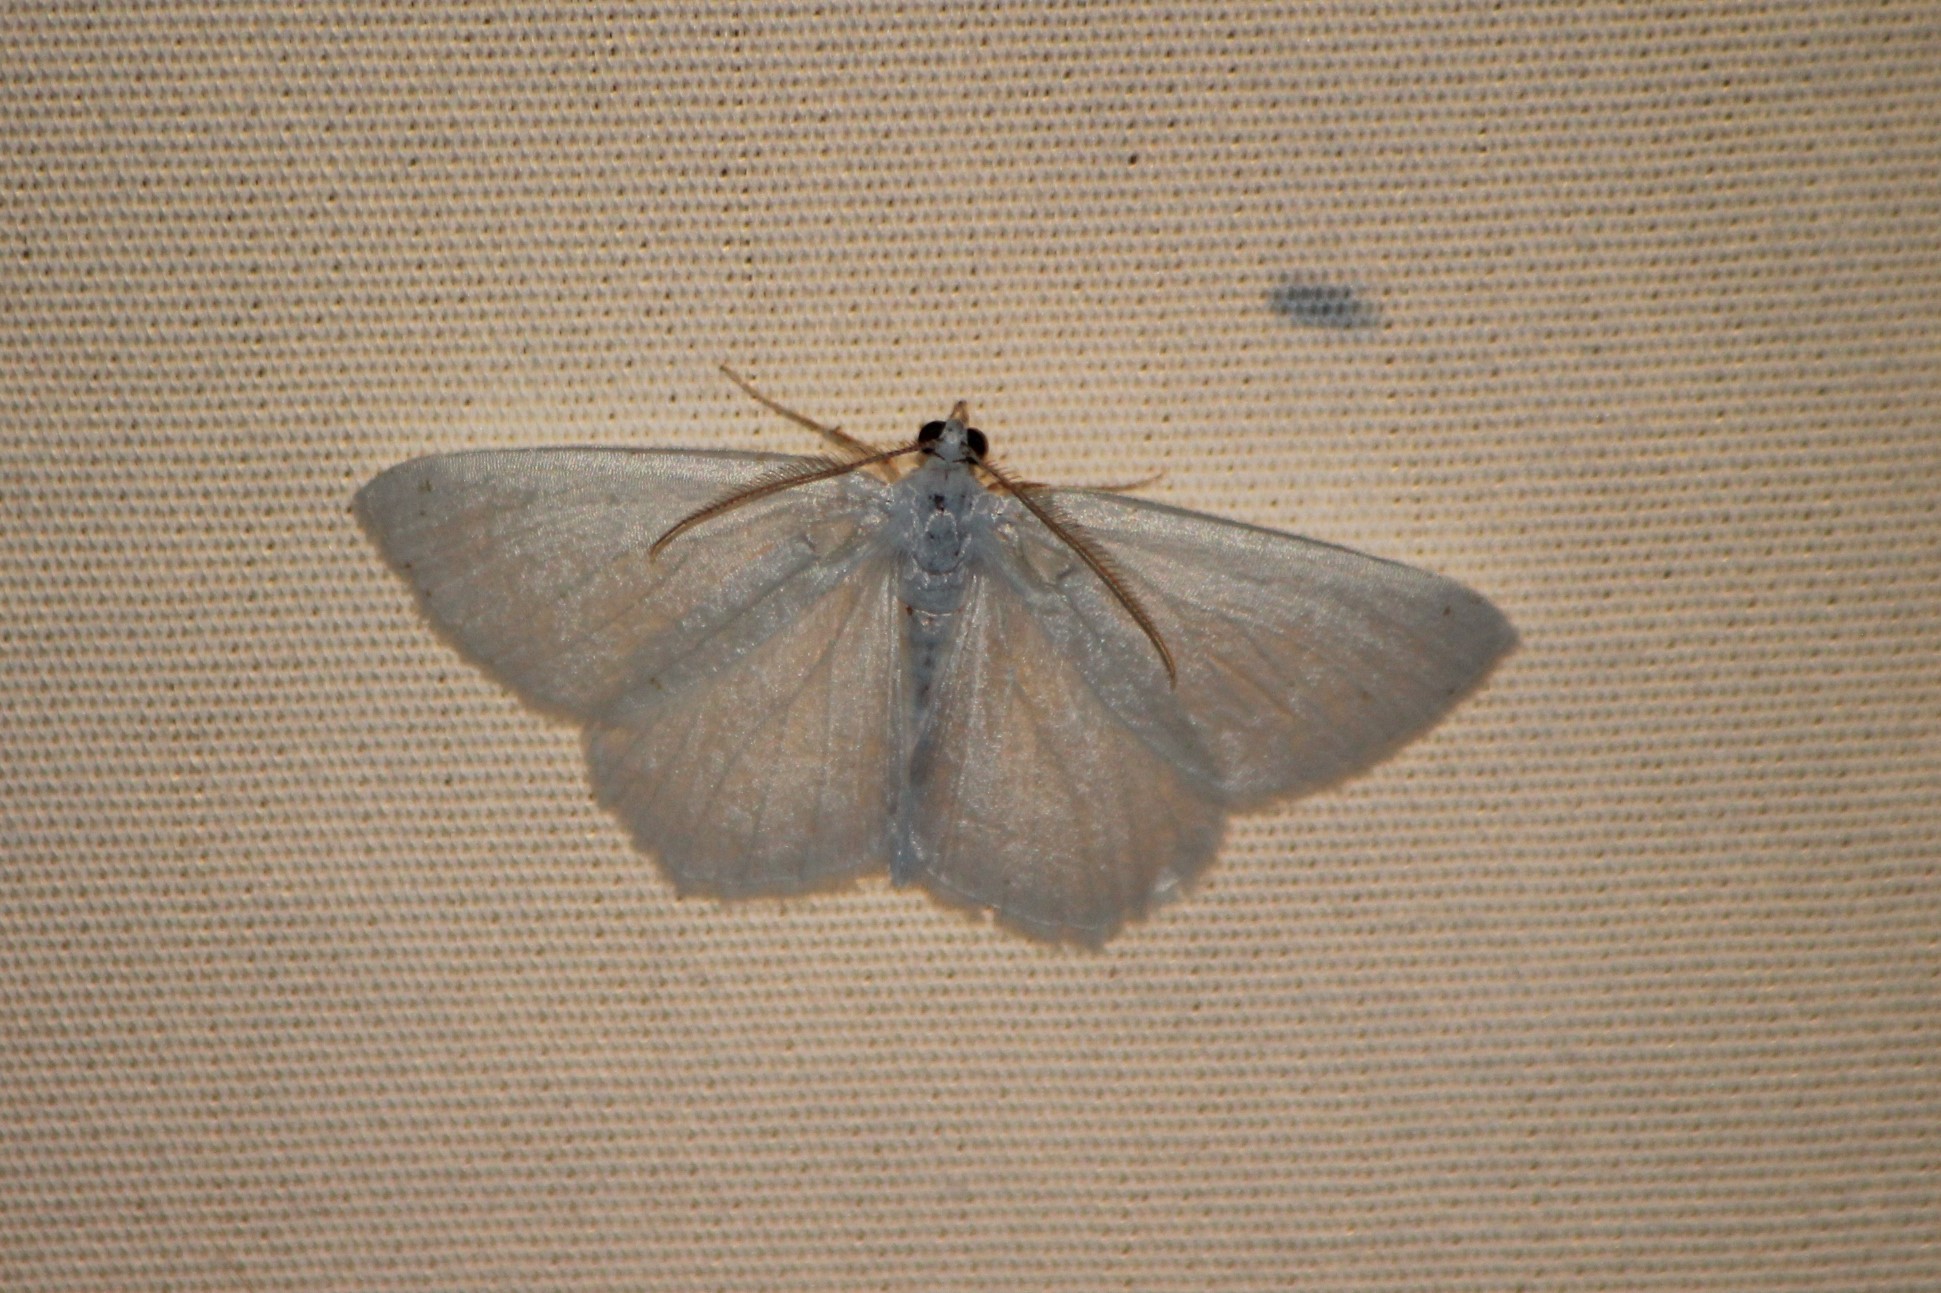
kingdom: Animalia
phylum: Arthropoda
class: Insecta
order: Lepidoptera
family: Geometridae
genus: Macaria
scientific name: Macaria pustularia
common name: Lesser maple spanworm moth
